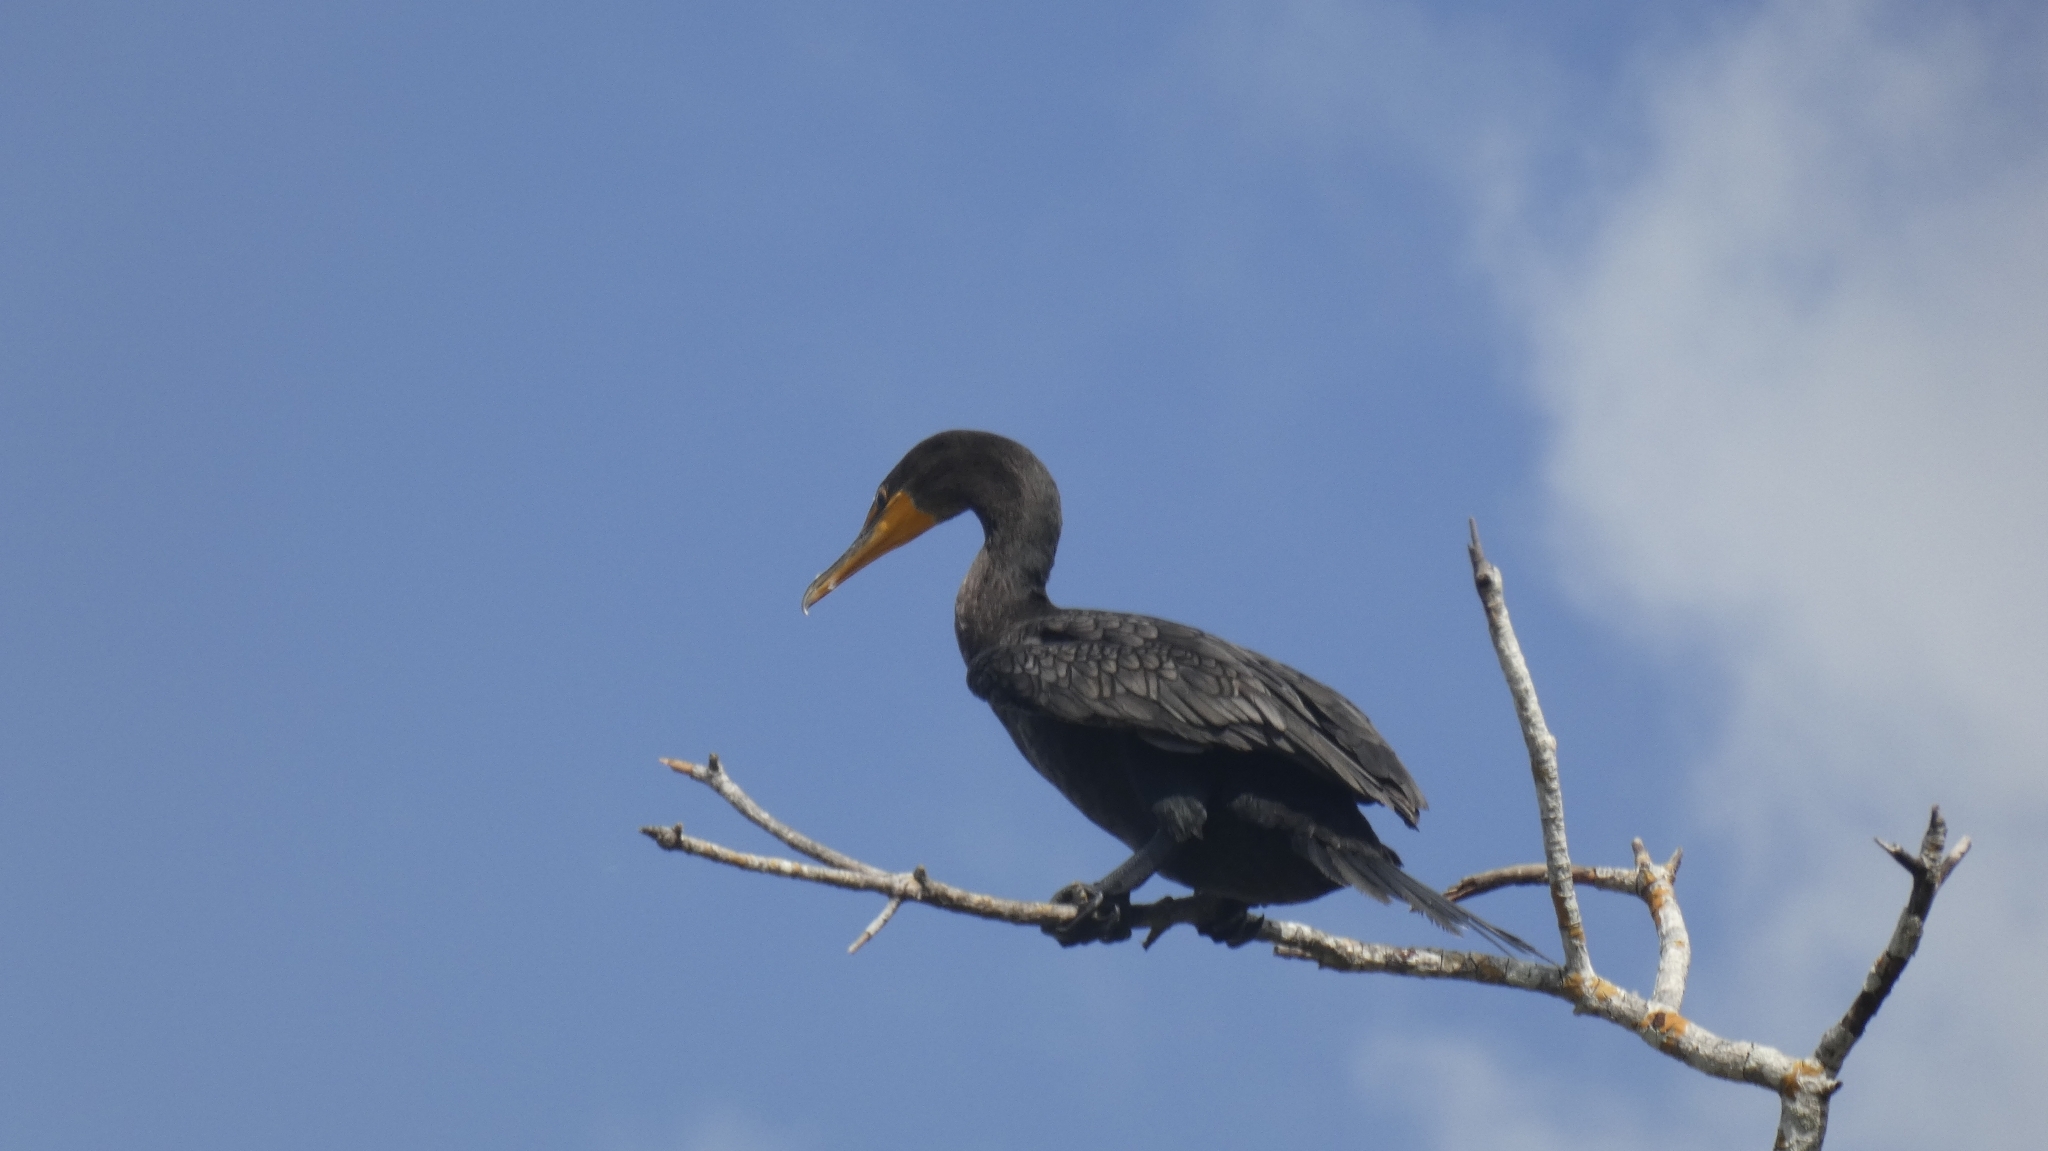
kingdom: Animalia
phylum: Chordata
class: Aves
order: Suliformes
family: Phalacrocoracidae
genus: Phalacrocorax
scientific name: Phalacrocorax auritus
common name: Double-crested cormorant
